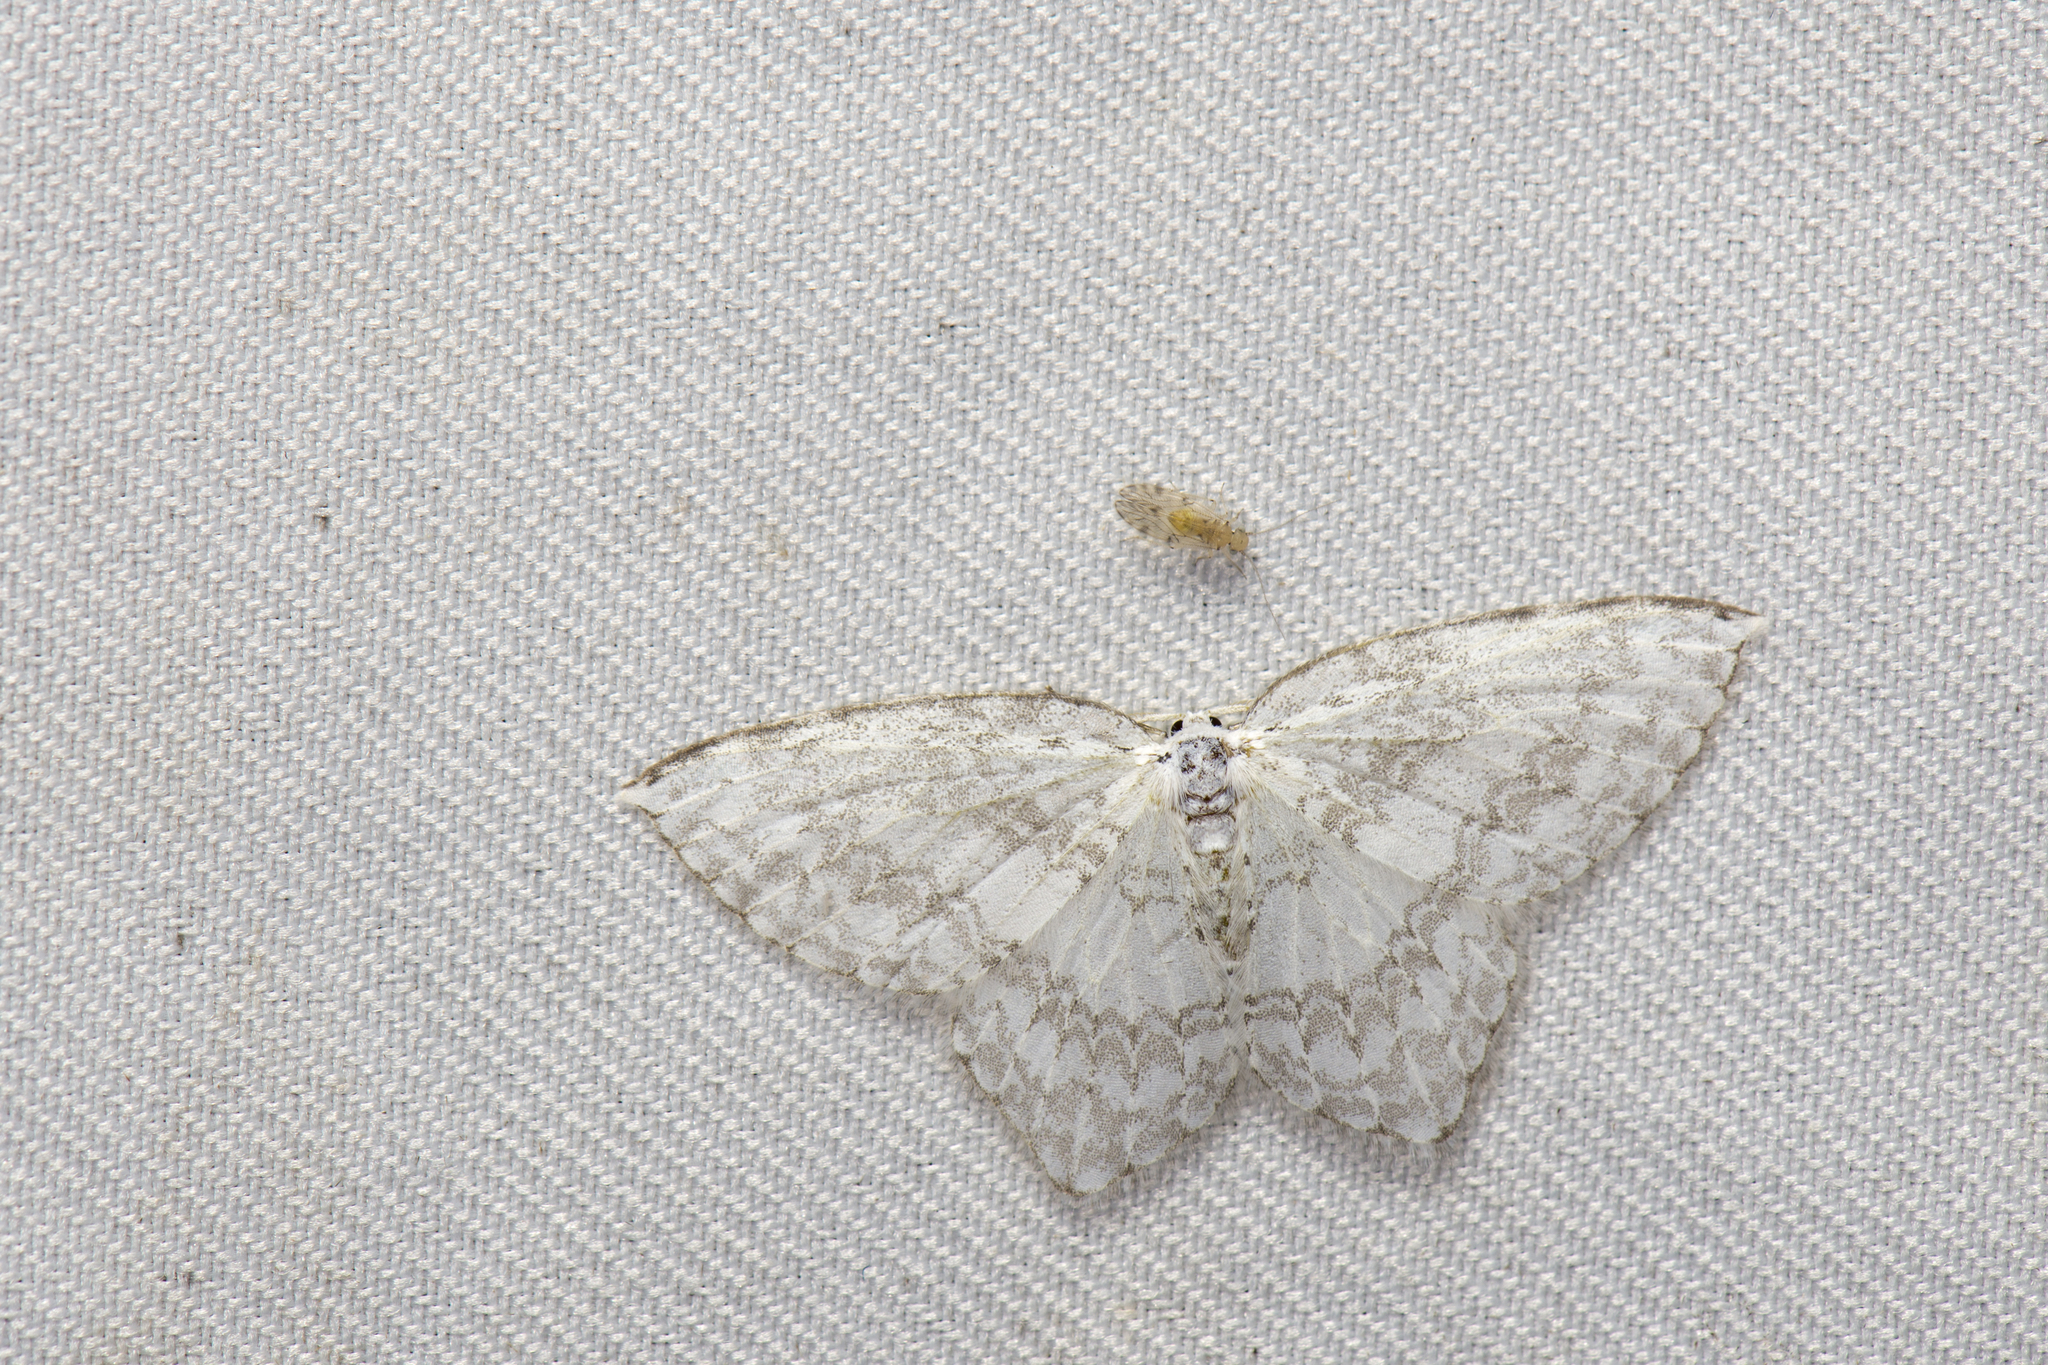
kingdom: Animalia
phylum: Arthropoda
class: Insecta
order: Lepidoptera
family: Drepanidae
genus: Ditrigona
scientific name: Ditrigona Leucodrepana serratilinea
